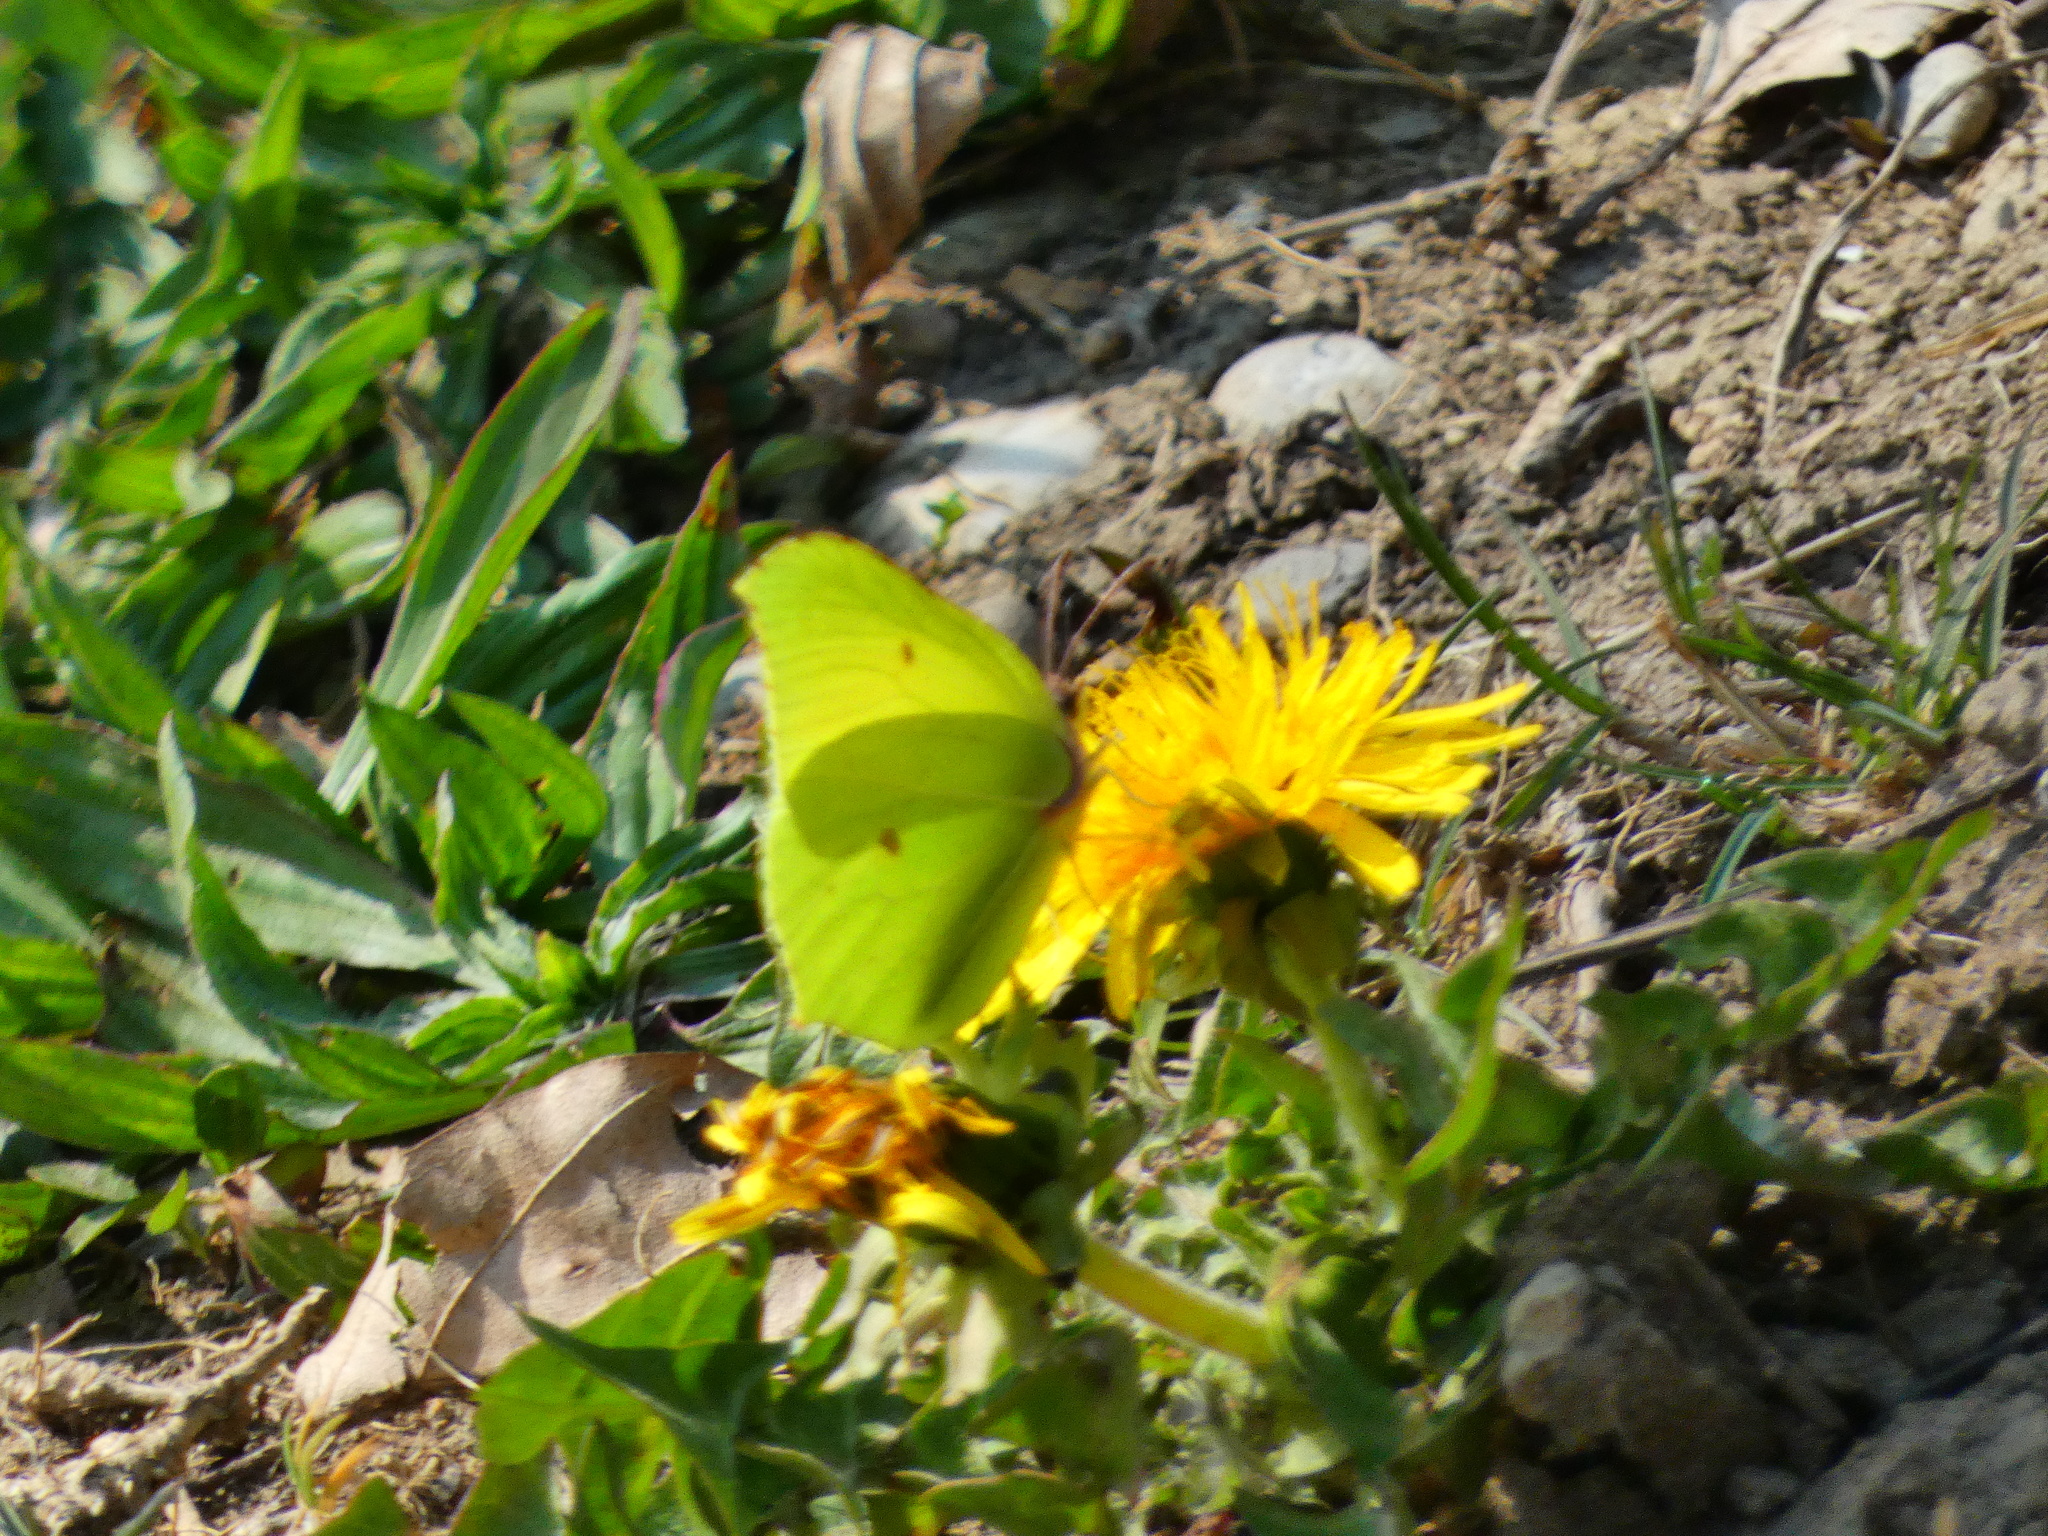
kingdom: Animalia
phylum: Arthropoda
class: Insecta
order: Lepidoptera
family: Pieridae
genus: Gonepteryx
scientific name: Gonepteryx rhamni
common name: Brimstone
